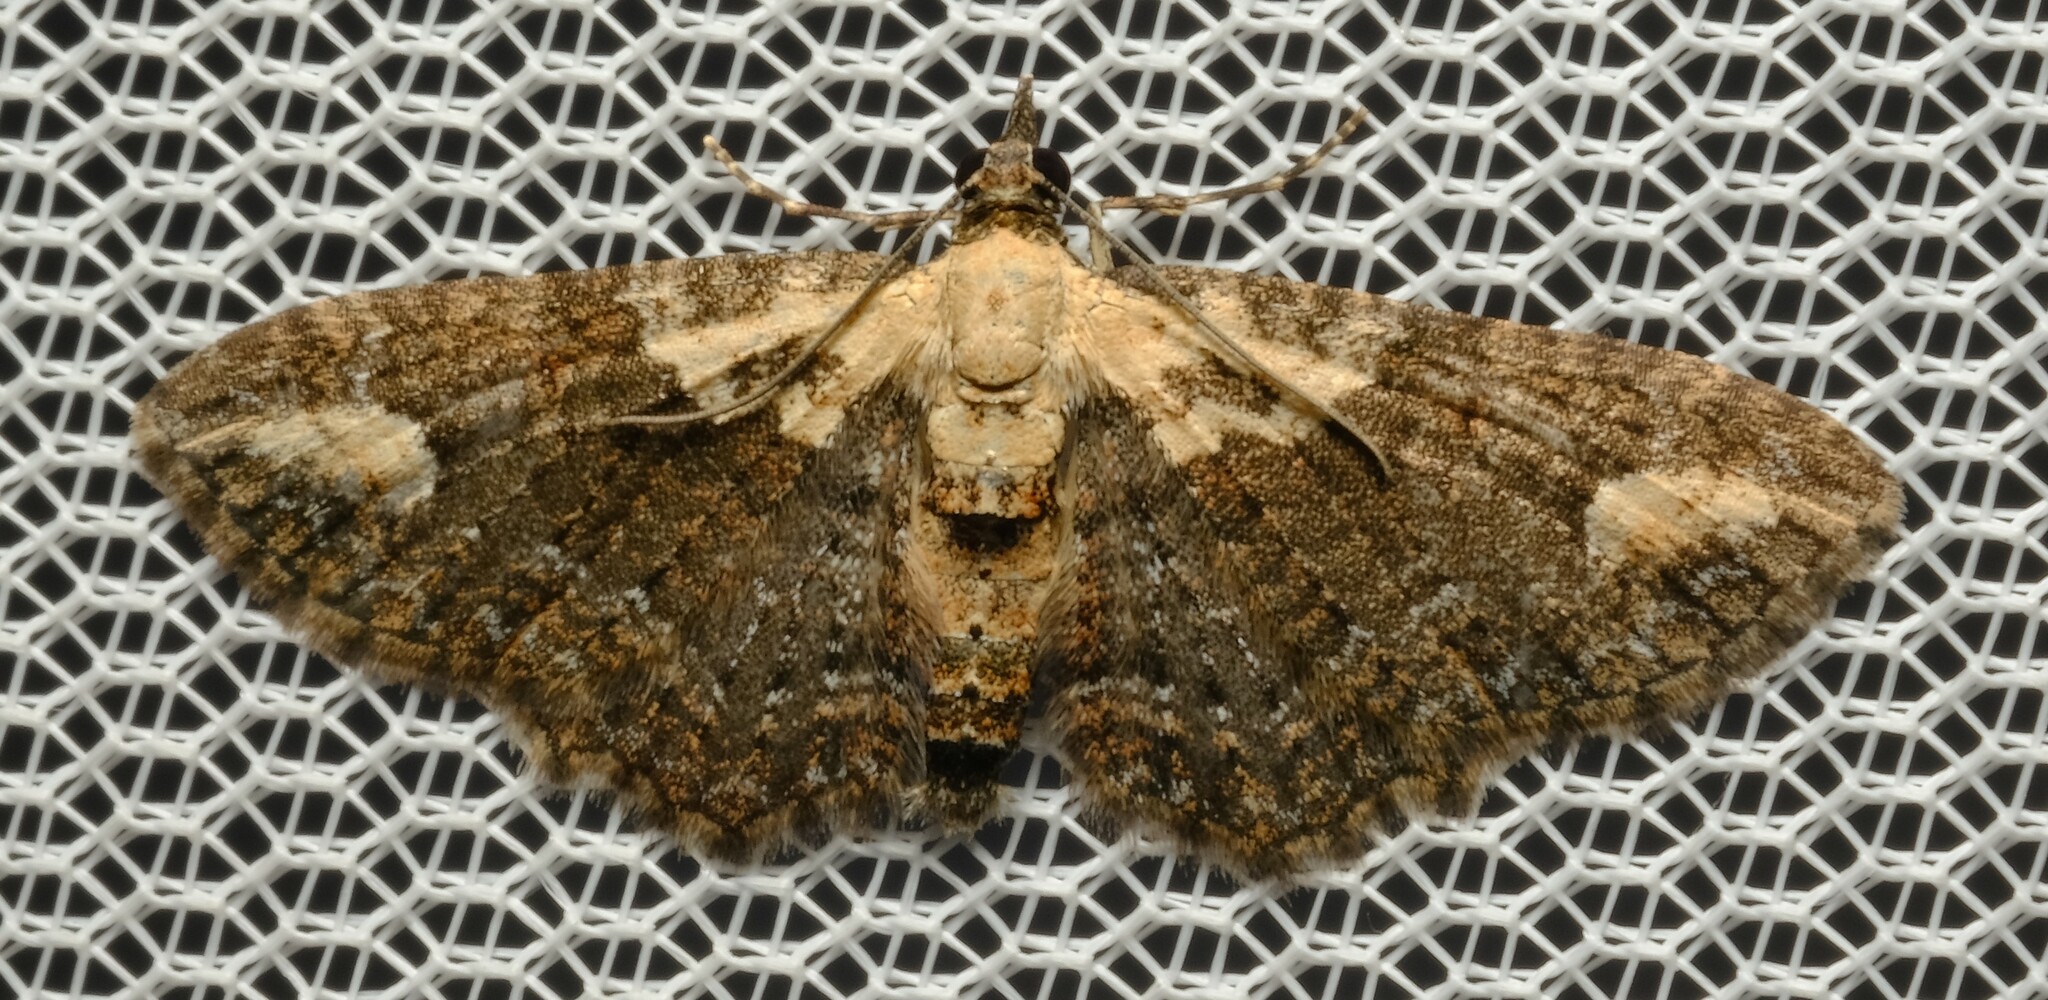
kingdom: Animalia
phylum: Arthropoda
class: Insecta
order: Lepidoptera
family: Geometridae
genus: Pasiphilodes
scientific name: Pasiphilodes testulata
